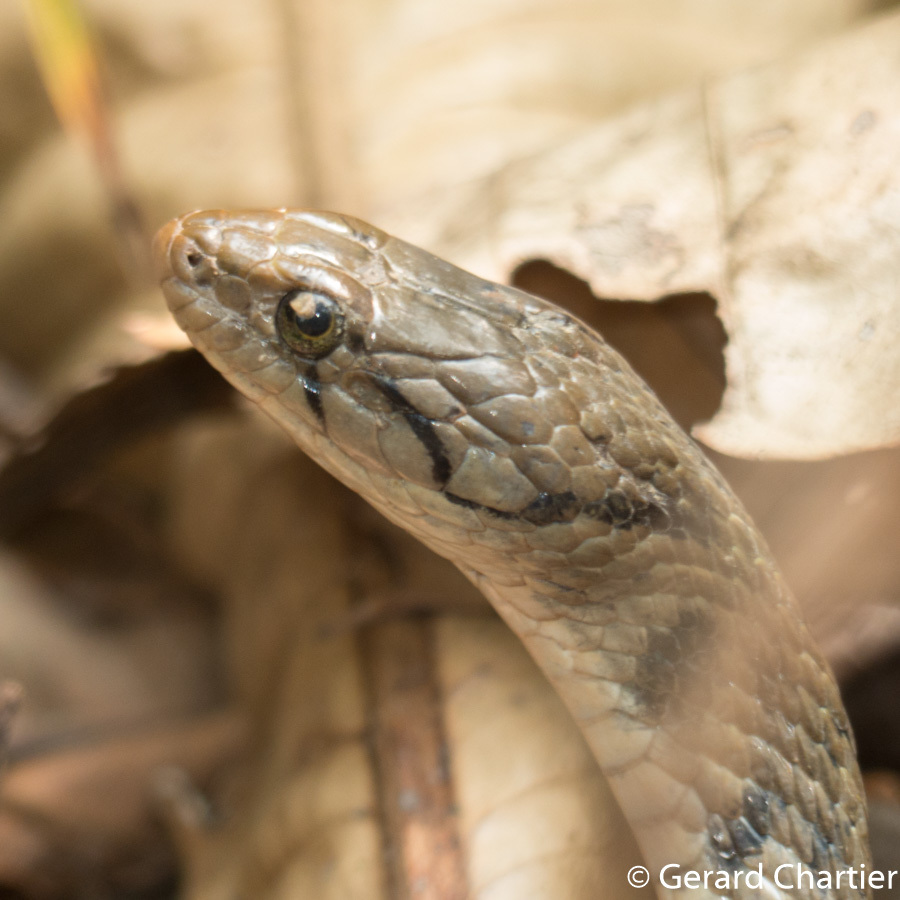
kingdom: Animalia
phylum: Chordata
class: Squamata
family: Colubridae
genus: Fowlea
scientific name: Fowlea flavipunctatus
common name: Yellow-spotted keelback
